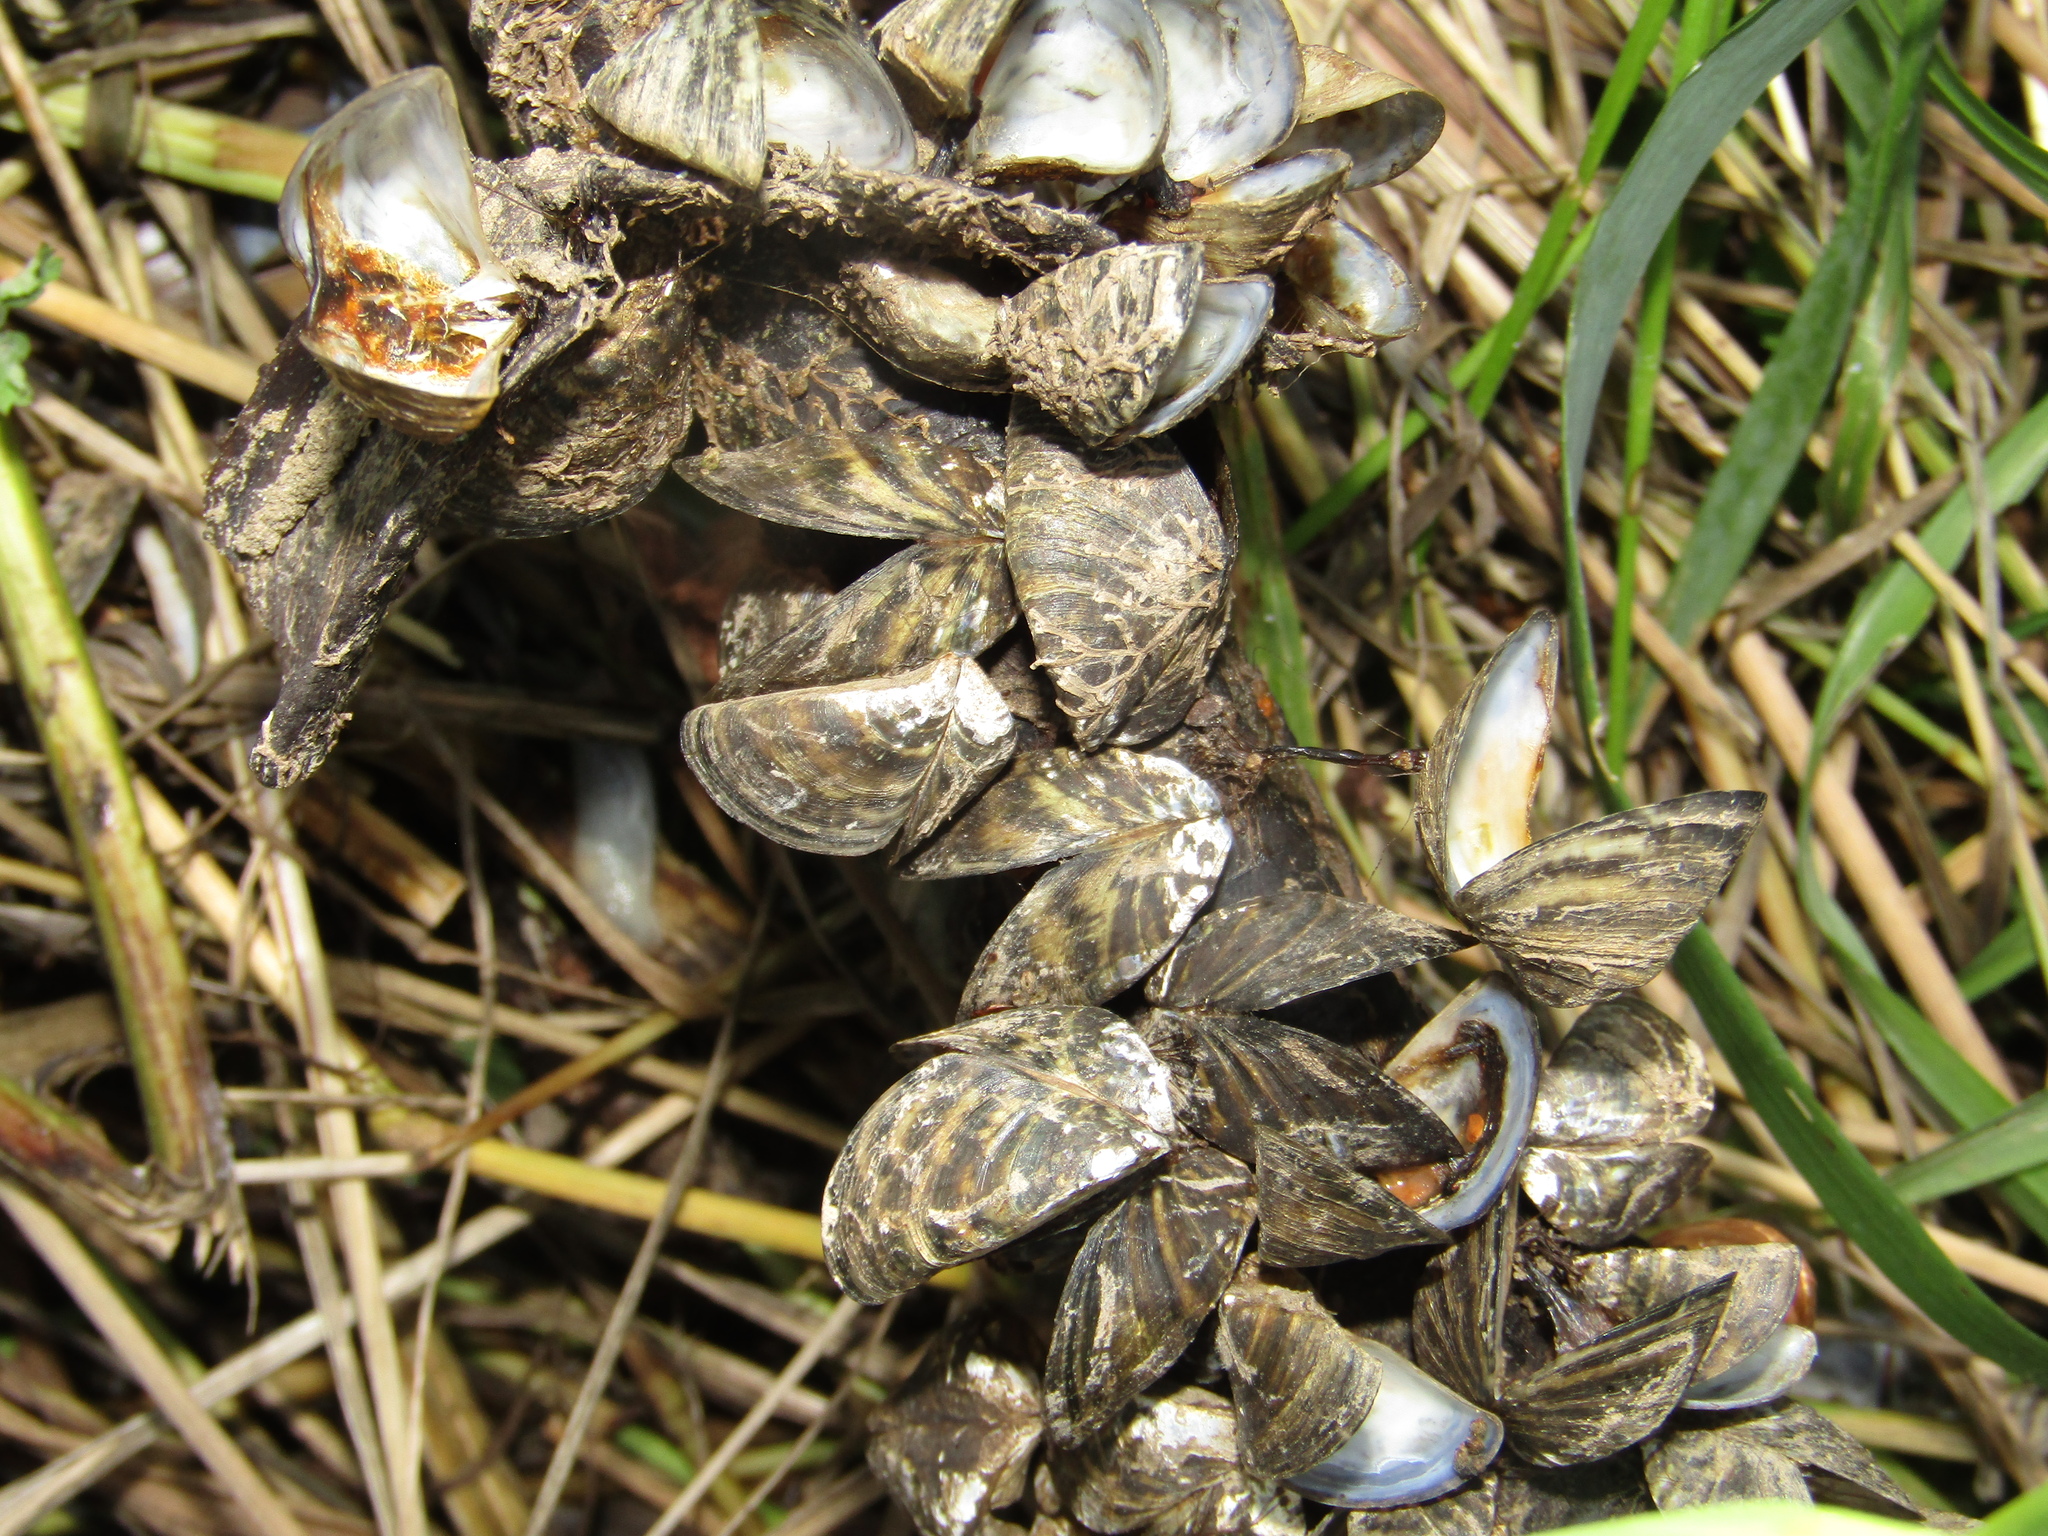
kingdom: Animalia
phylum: Mollusca
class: Bivalvia
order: Myida
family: Dreissenidae
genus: Dreissena
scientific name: Dreissena polymorpha
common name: Zebra mussel
